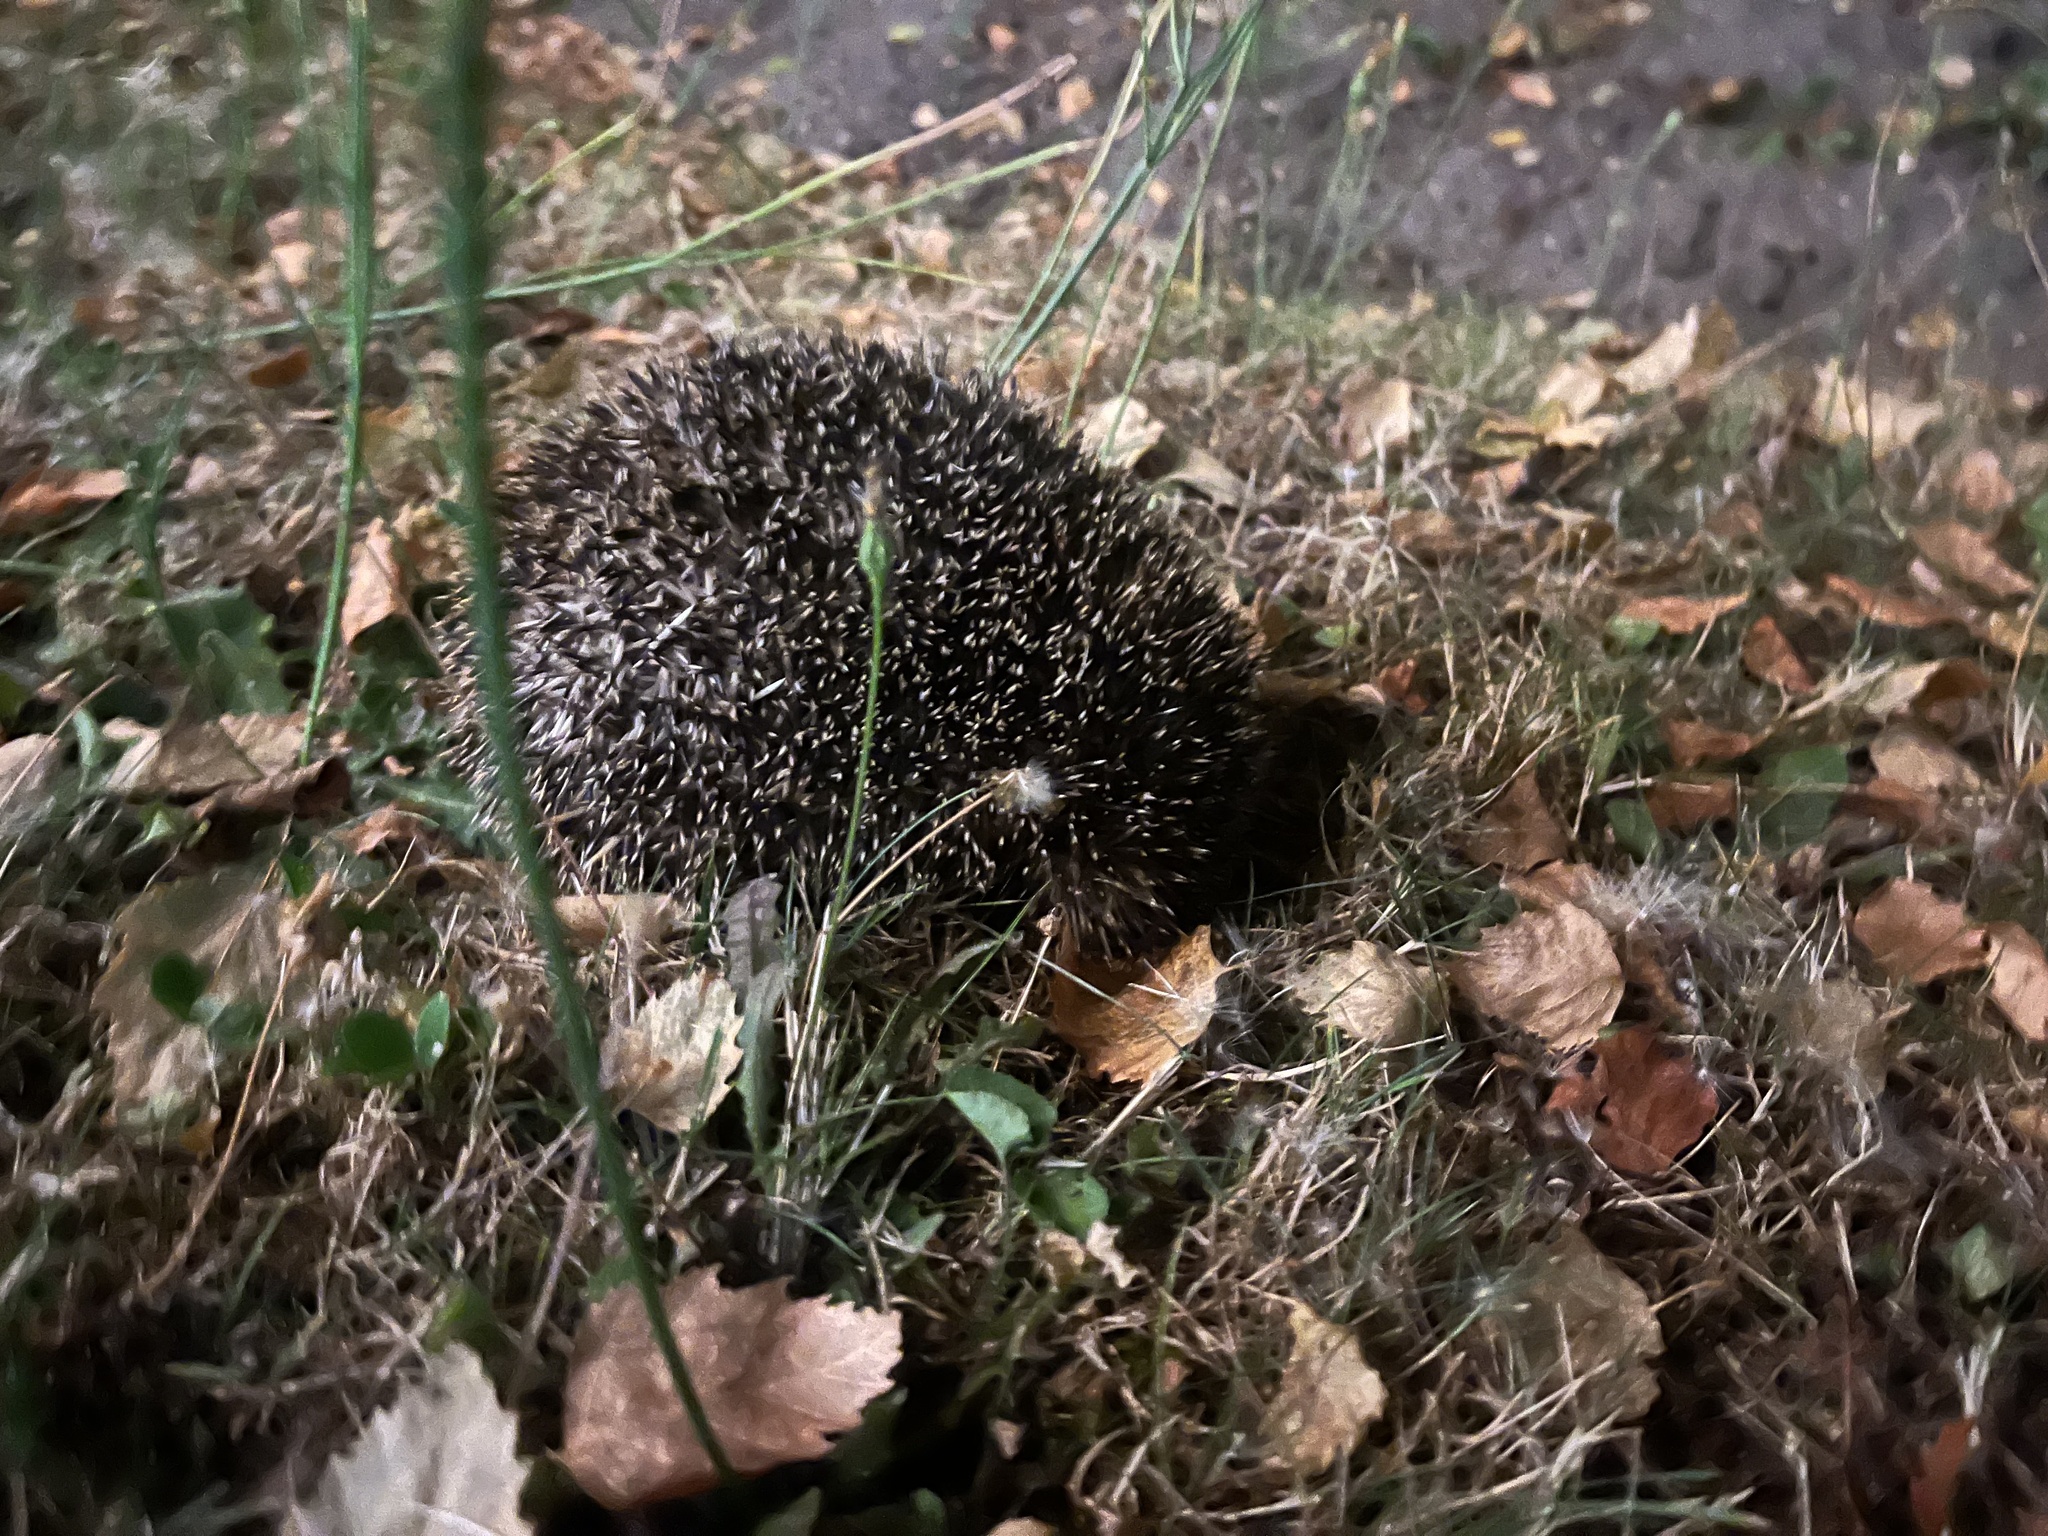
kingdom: Animalia
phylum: Chordata
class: Mammalia
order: Erinaceomorpha
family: Erinaceidae
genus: Erinaceus
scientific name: Erinaceus europaeus
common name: West european hedgehog
